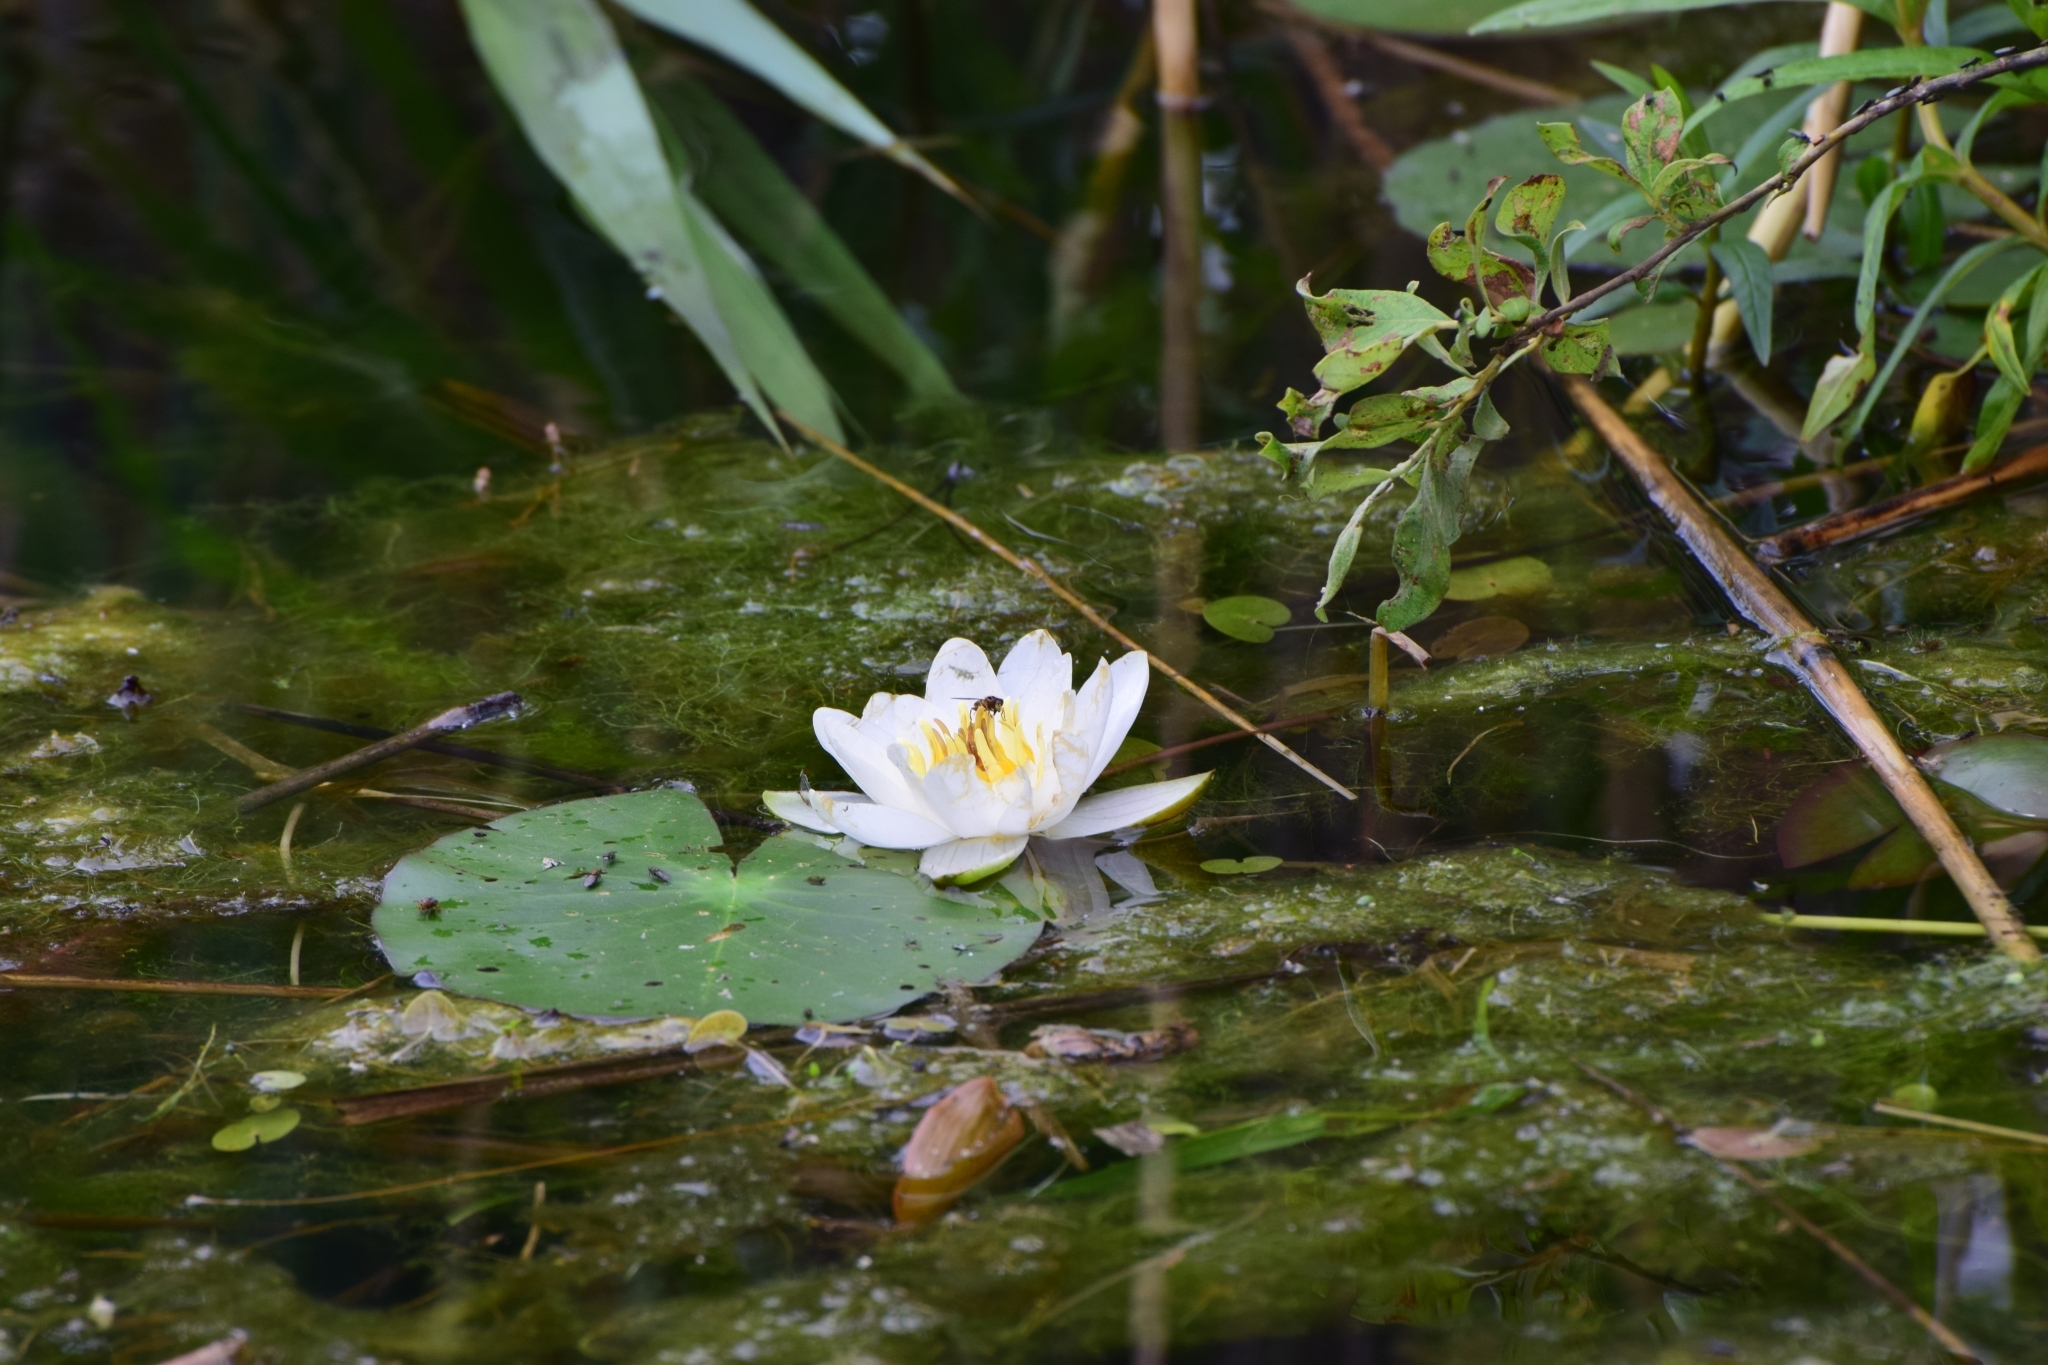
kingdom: Plantae
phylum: Tracheophyta
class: Magnoliopsida
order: Nymphaeales
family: Nymphaeaceae
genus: Nymphaea
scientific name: Nymphaea candida
